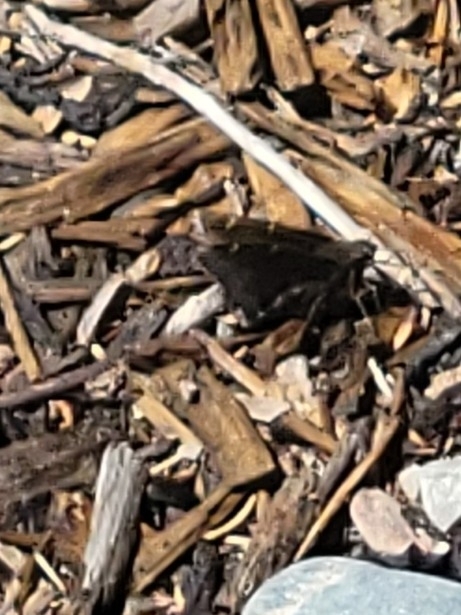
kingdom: Animalia
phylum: Arthropoda
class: Insecta
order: Lepidoptera
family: Hesperiidae
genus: Thorybes
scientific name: Thorybes pylades
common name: Northern cloudywing
